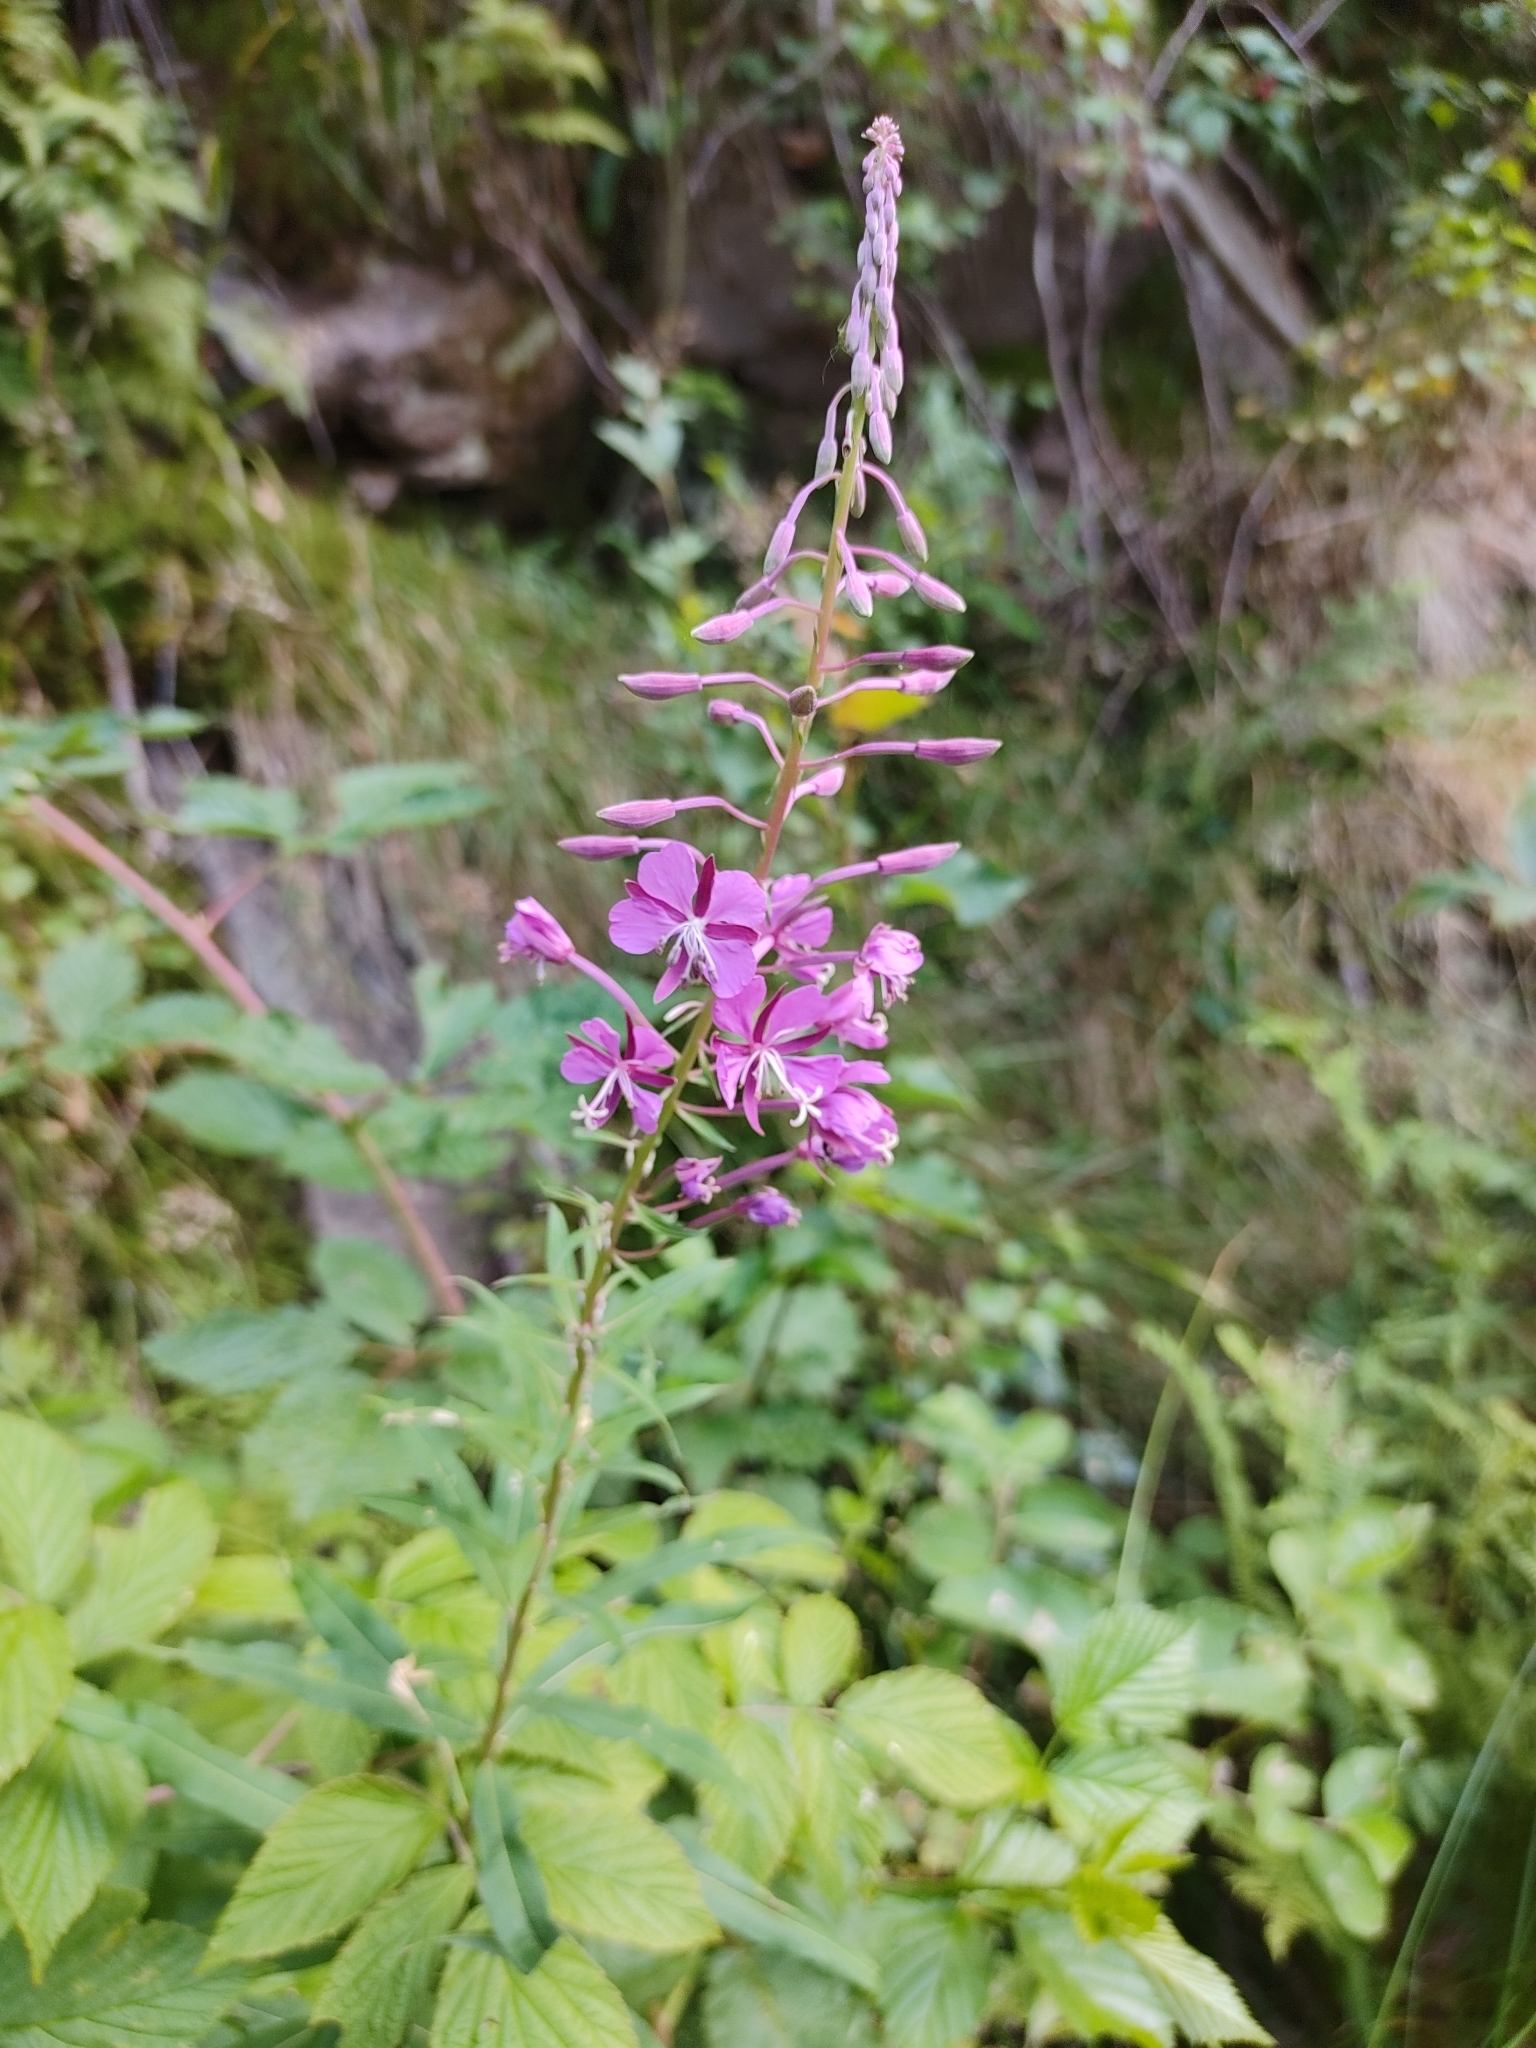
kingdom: Plantae
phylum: Tracheophyta
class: Magnoliopsida
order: Myrtales
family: Onagraceae
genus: Chamaenerion
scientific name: Chamaenerion angustifolium
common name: Fireweed
